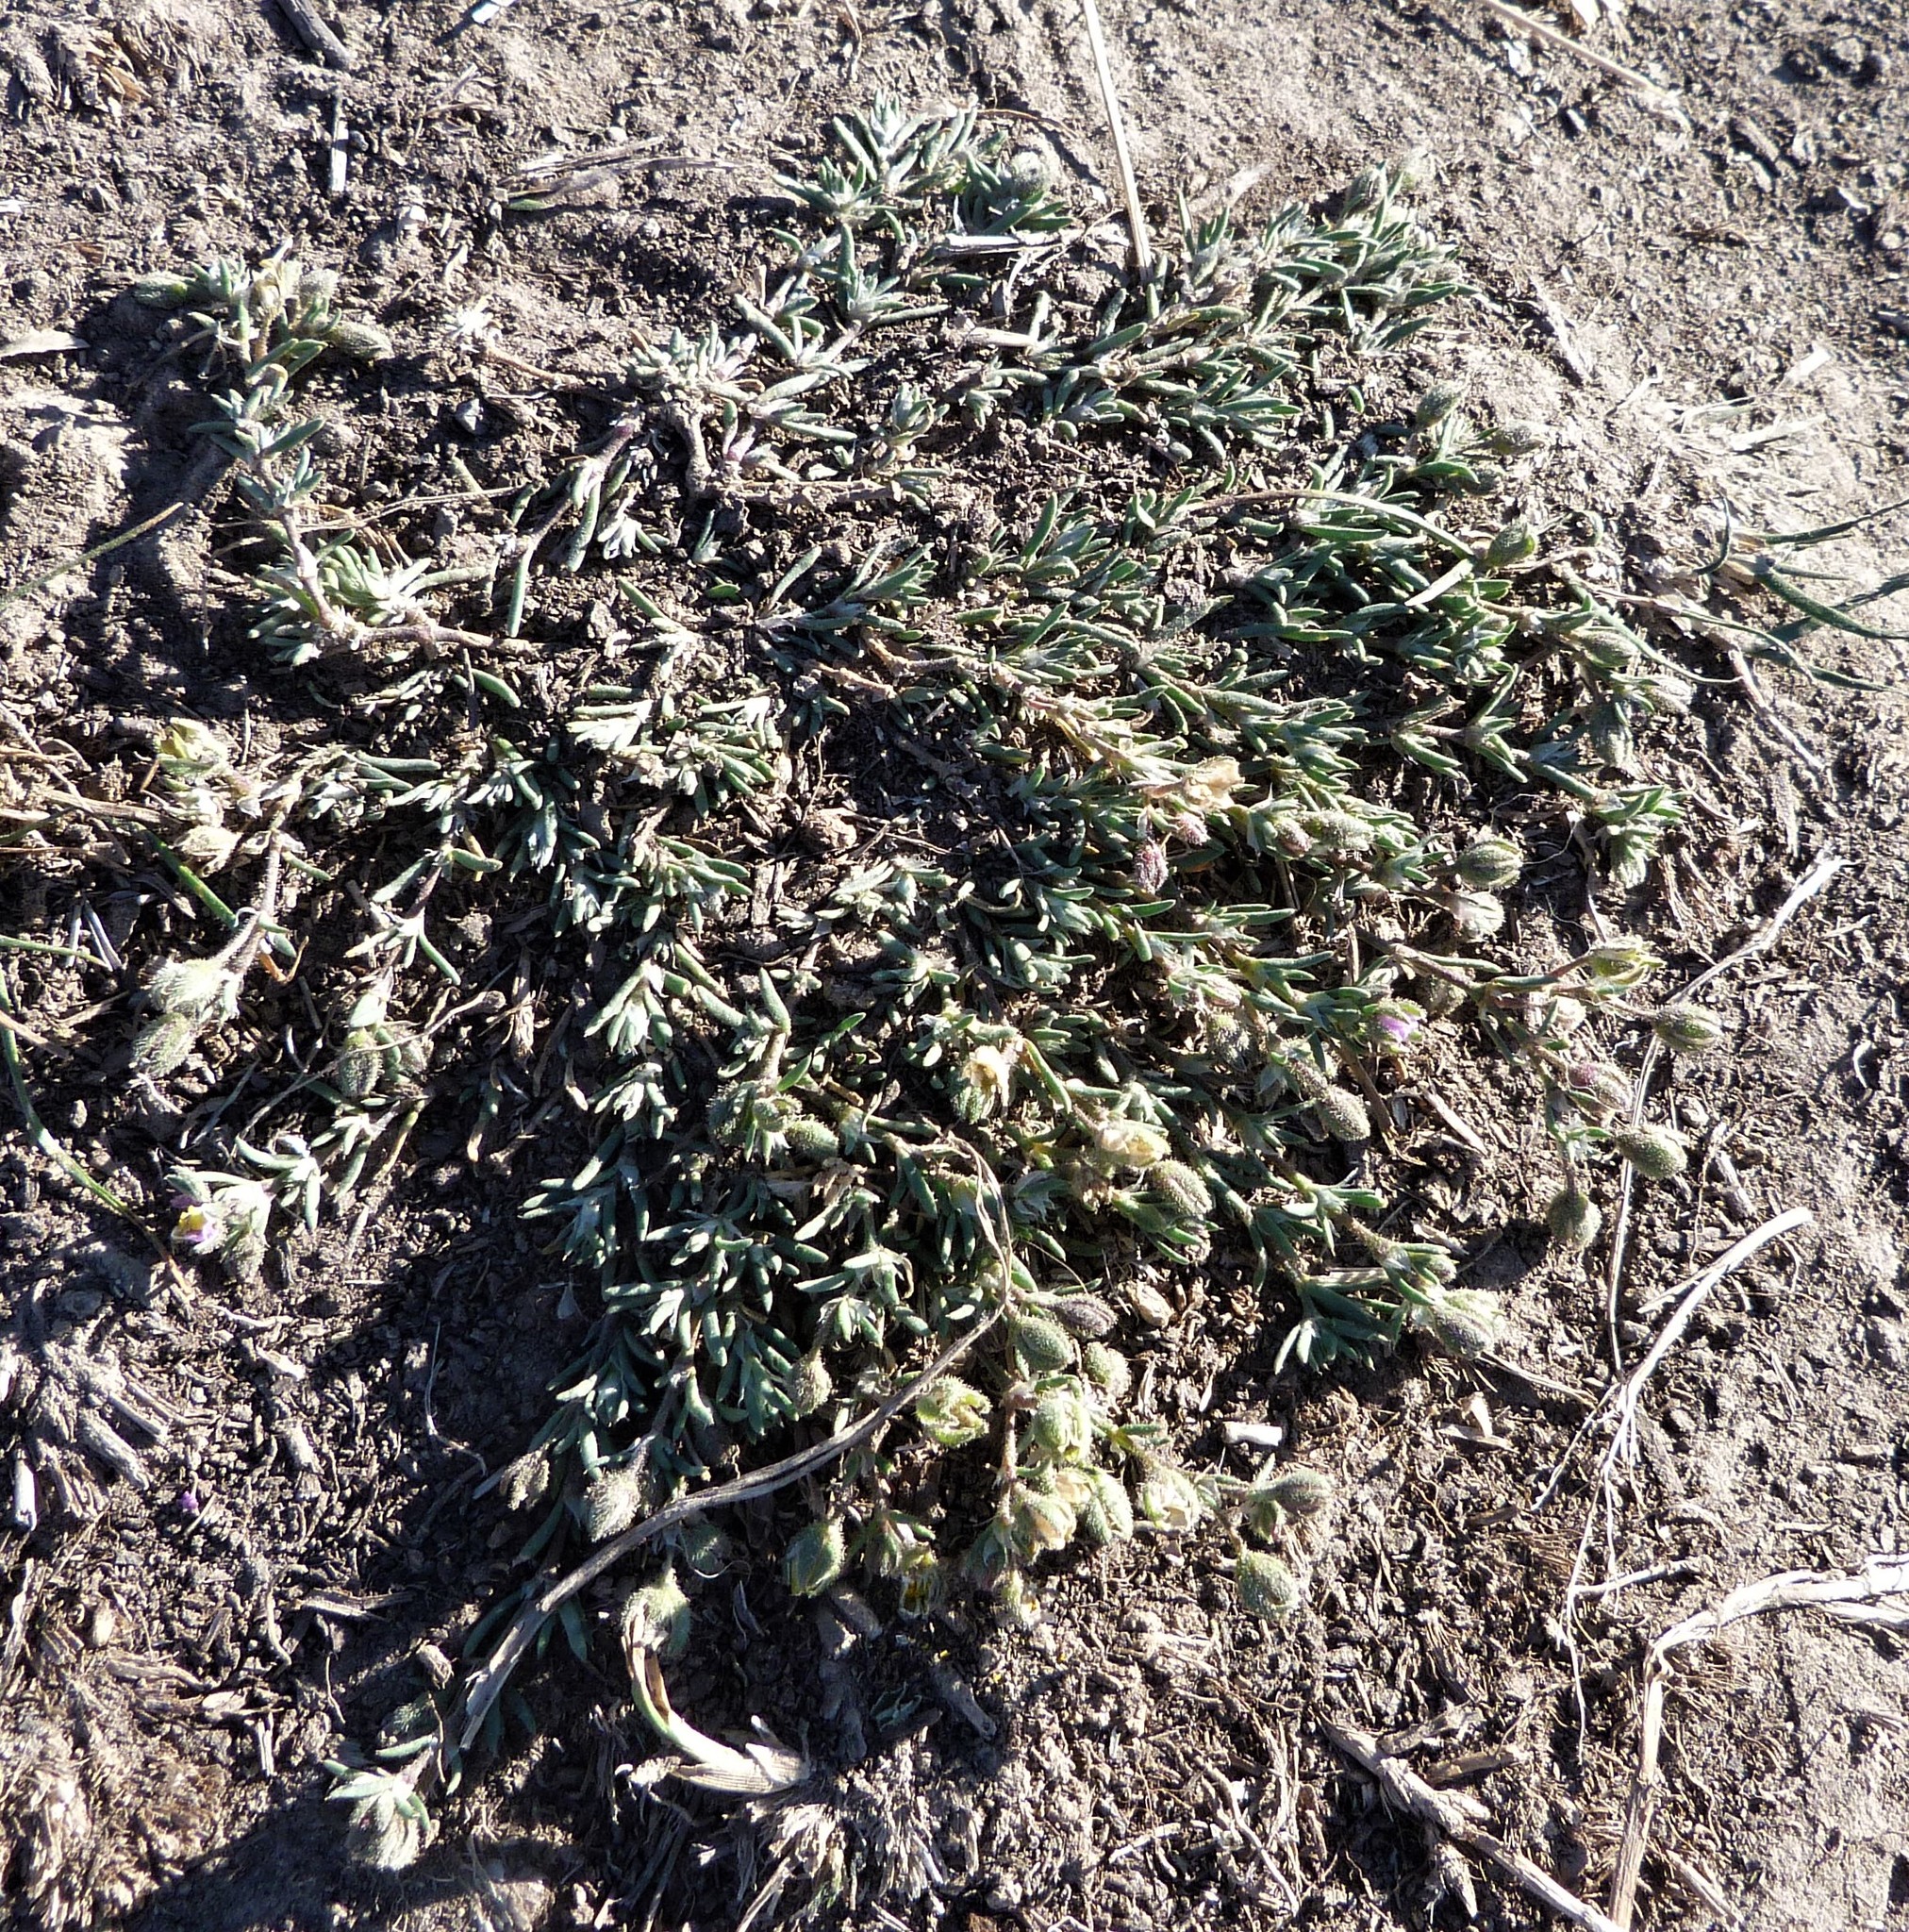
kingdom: Plantae
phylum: Tracheophyta
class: Magnoliopsida
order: Caryophyllales
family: Caryophyllaceae
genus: Spergularia
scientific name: Spergularia rubra
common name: Red sand-spurrey
